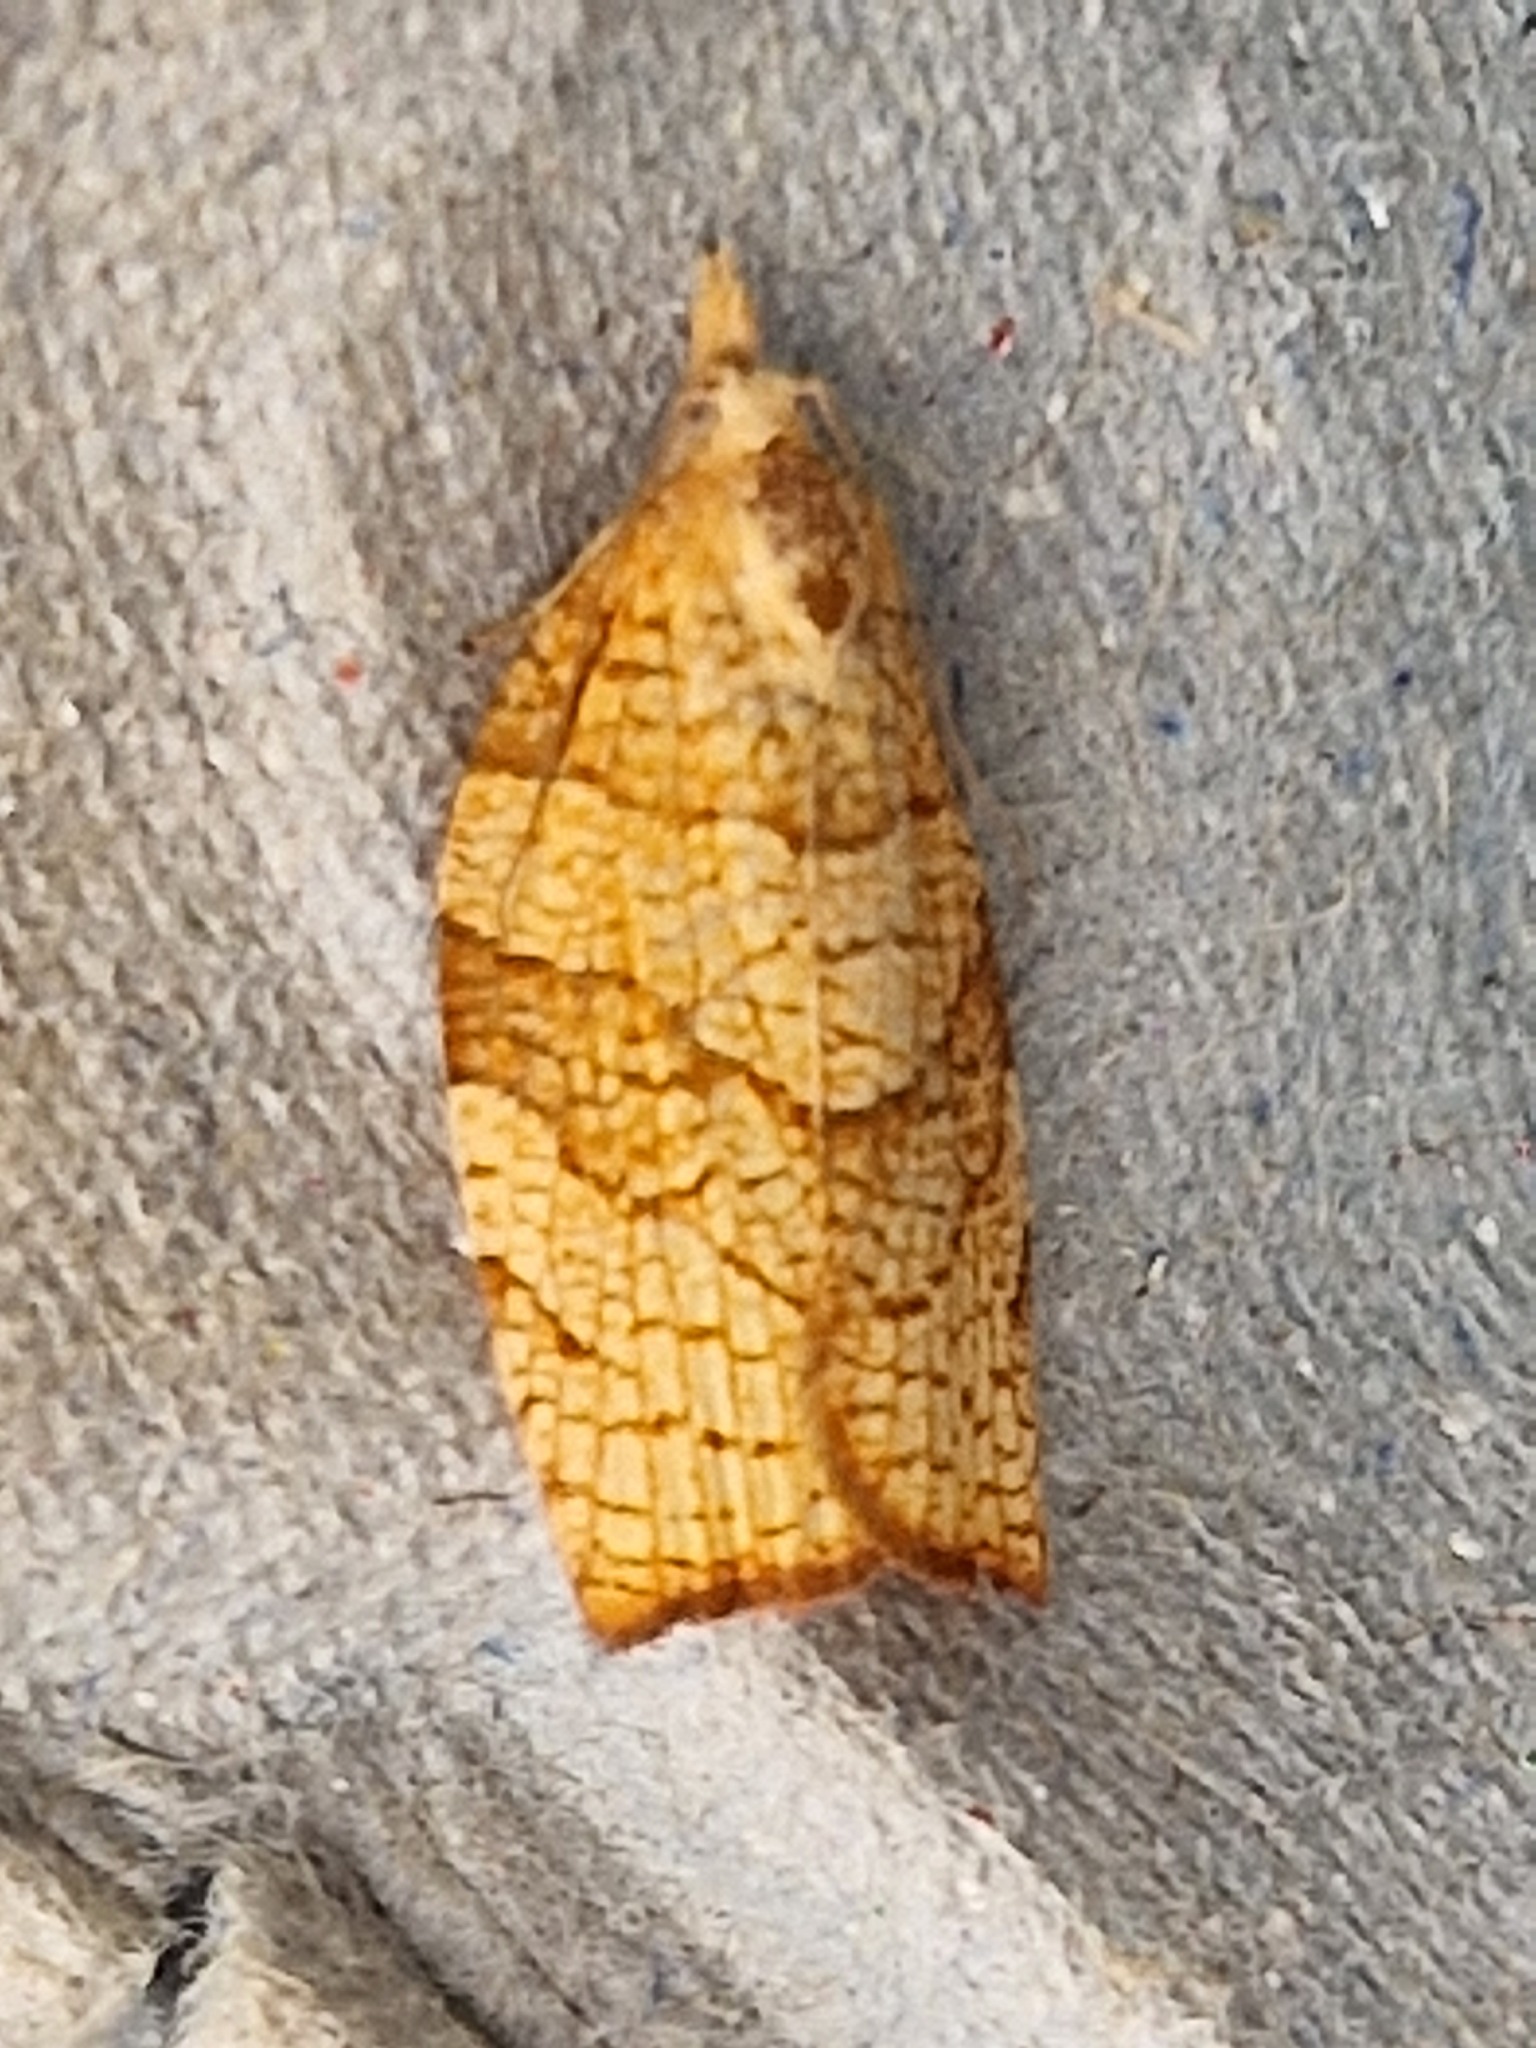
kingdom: Animalia
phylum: Arthropoda
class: Insecta
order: Lepidoptera
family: Tortricidae
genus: Pandemis
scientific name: Pandemis corylana
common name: Chequered fruit-tree tortrix
